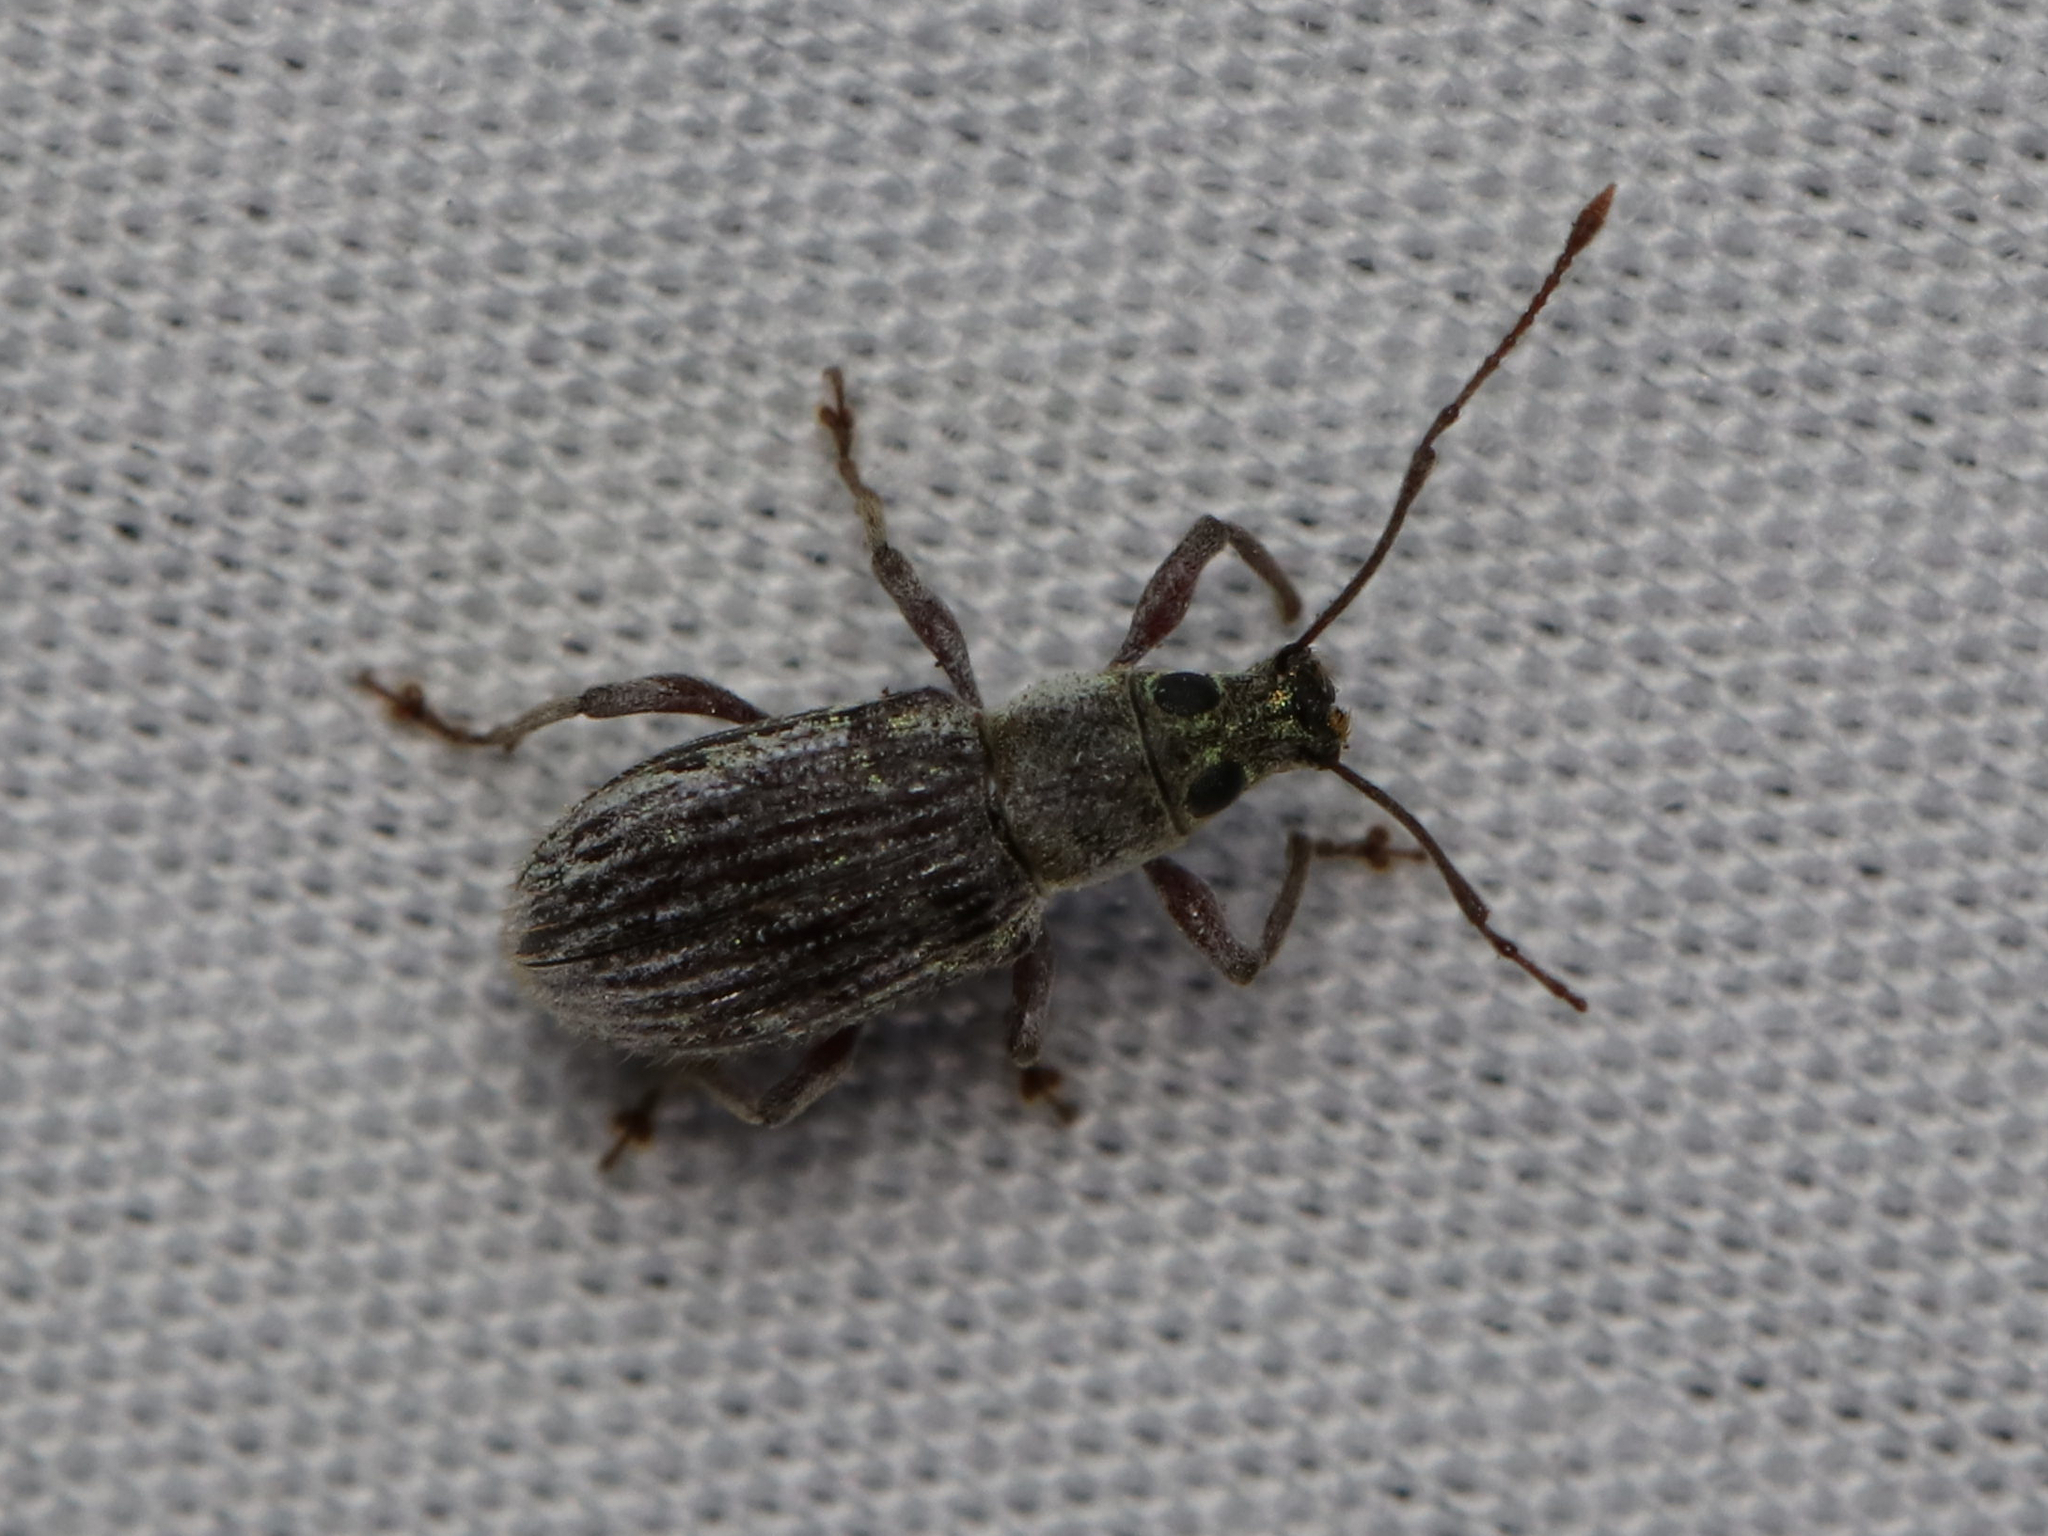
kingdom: Animalia
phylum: Arthropoda
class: Insecta
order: Coleoptera
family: Curculionidae
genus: Cyrtepistomus
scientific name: Cyrtepistomus castaneus
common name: Weevil
